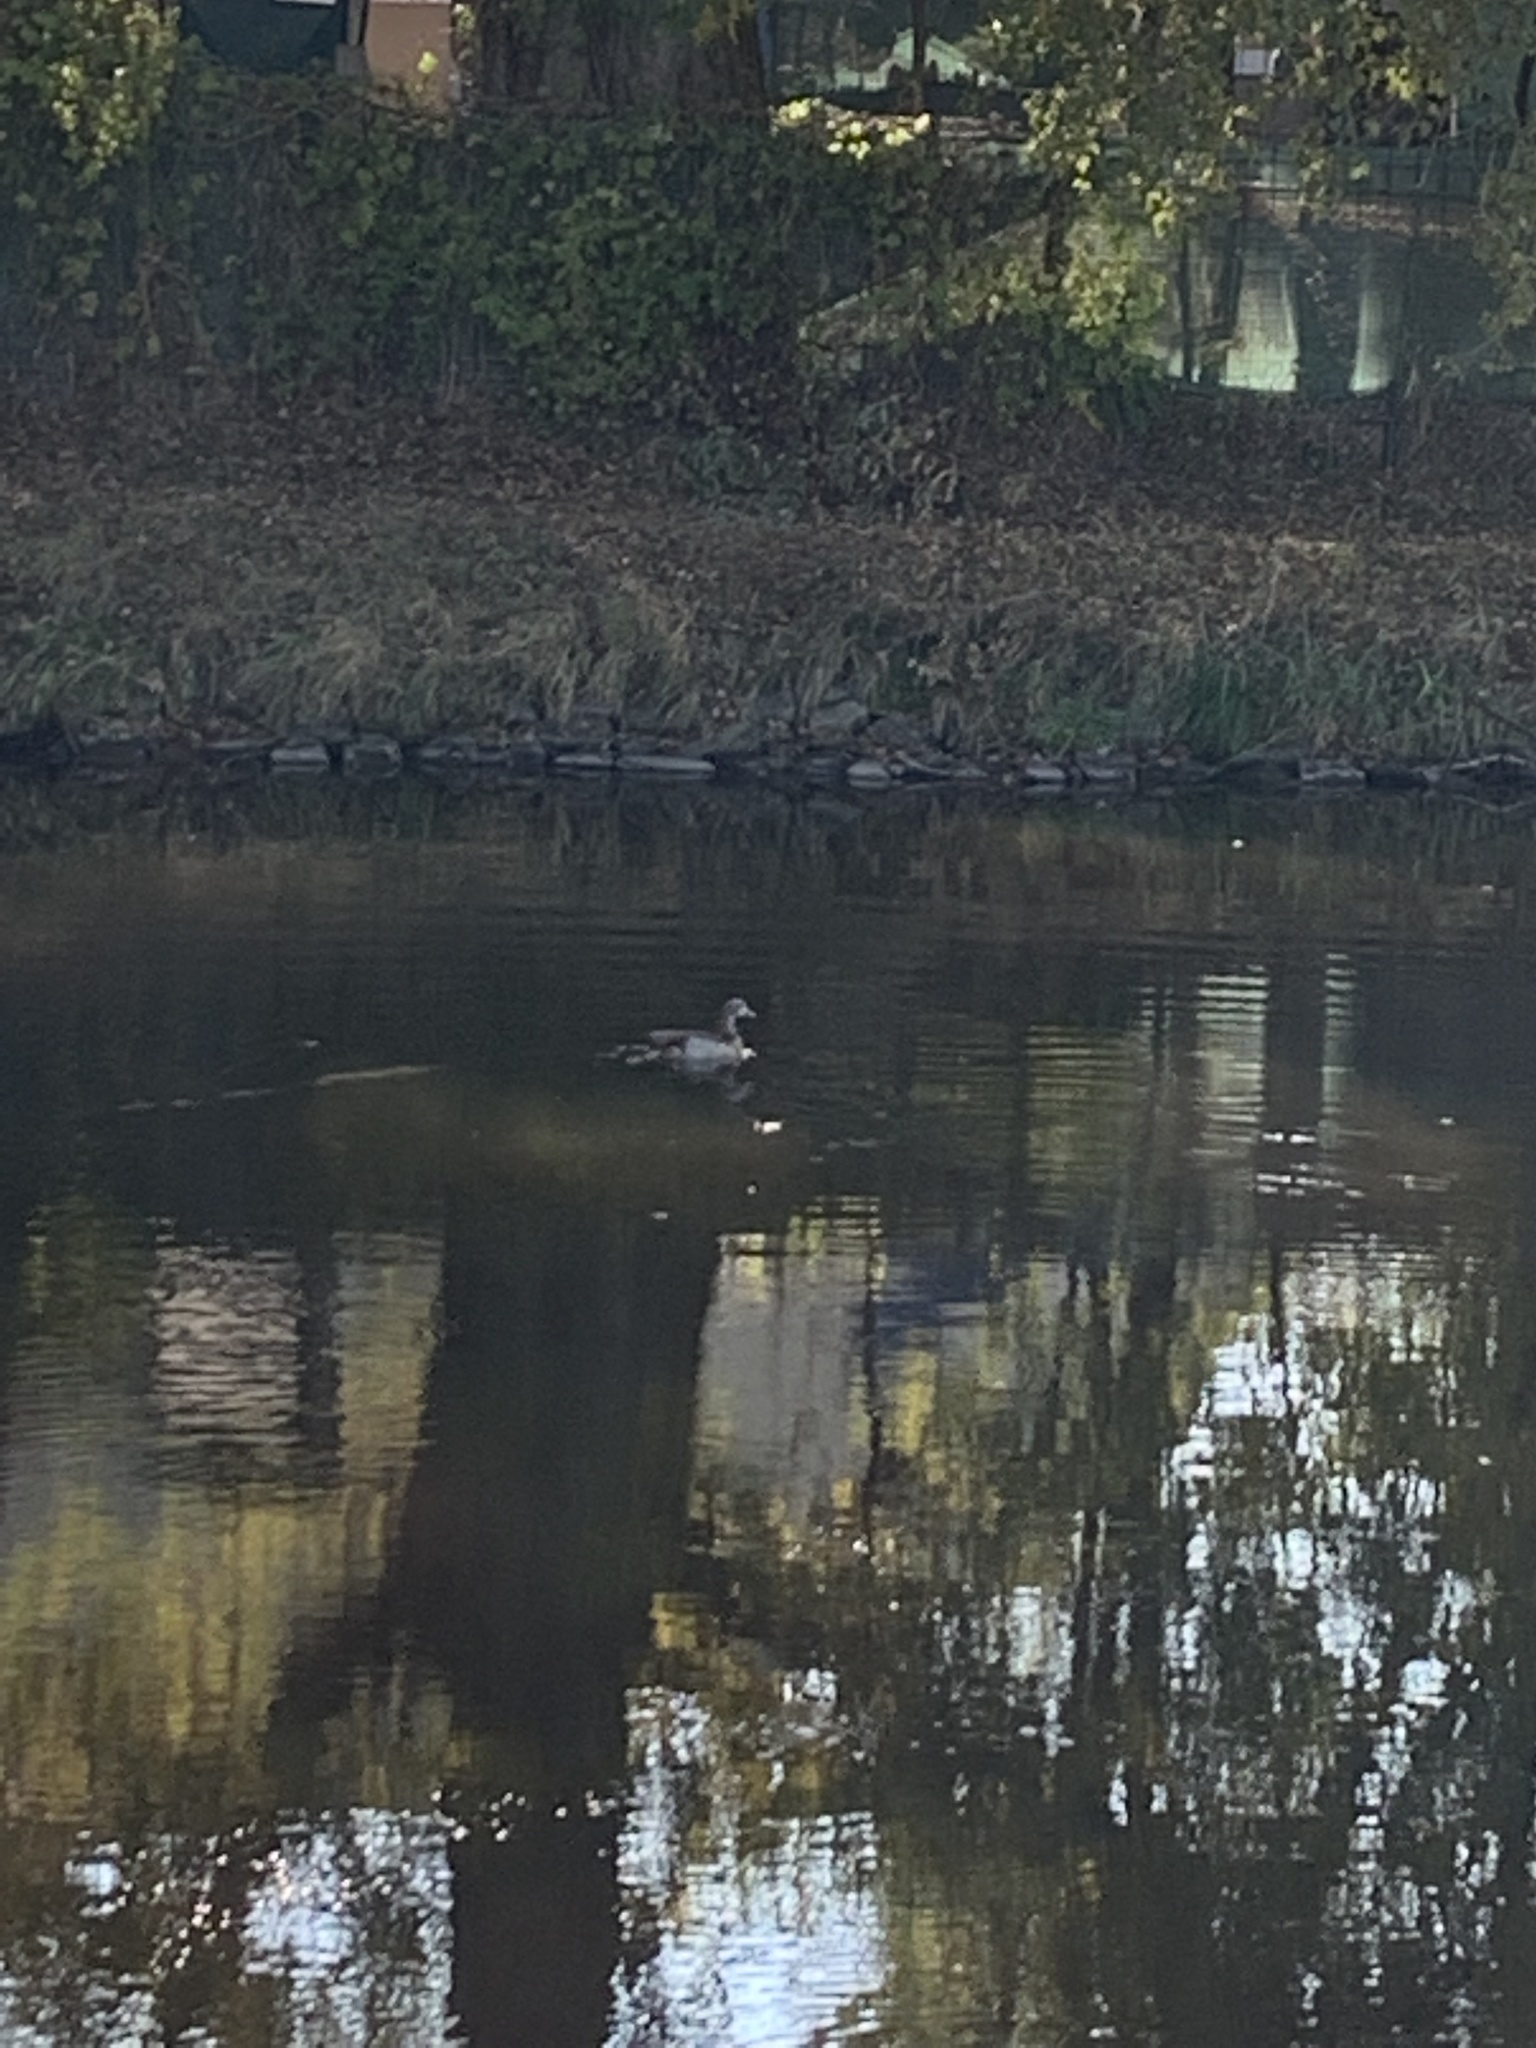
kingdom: Animalia
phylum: Chordata
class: Aves
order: Anseriformes
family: Anatidae
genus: Alopochen
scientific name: Alopochen aegyptiaca
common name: Egyptian goose
